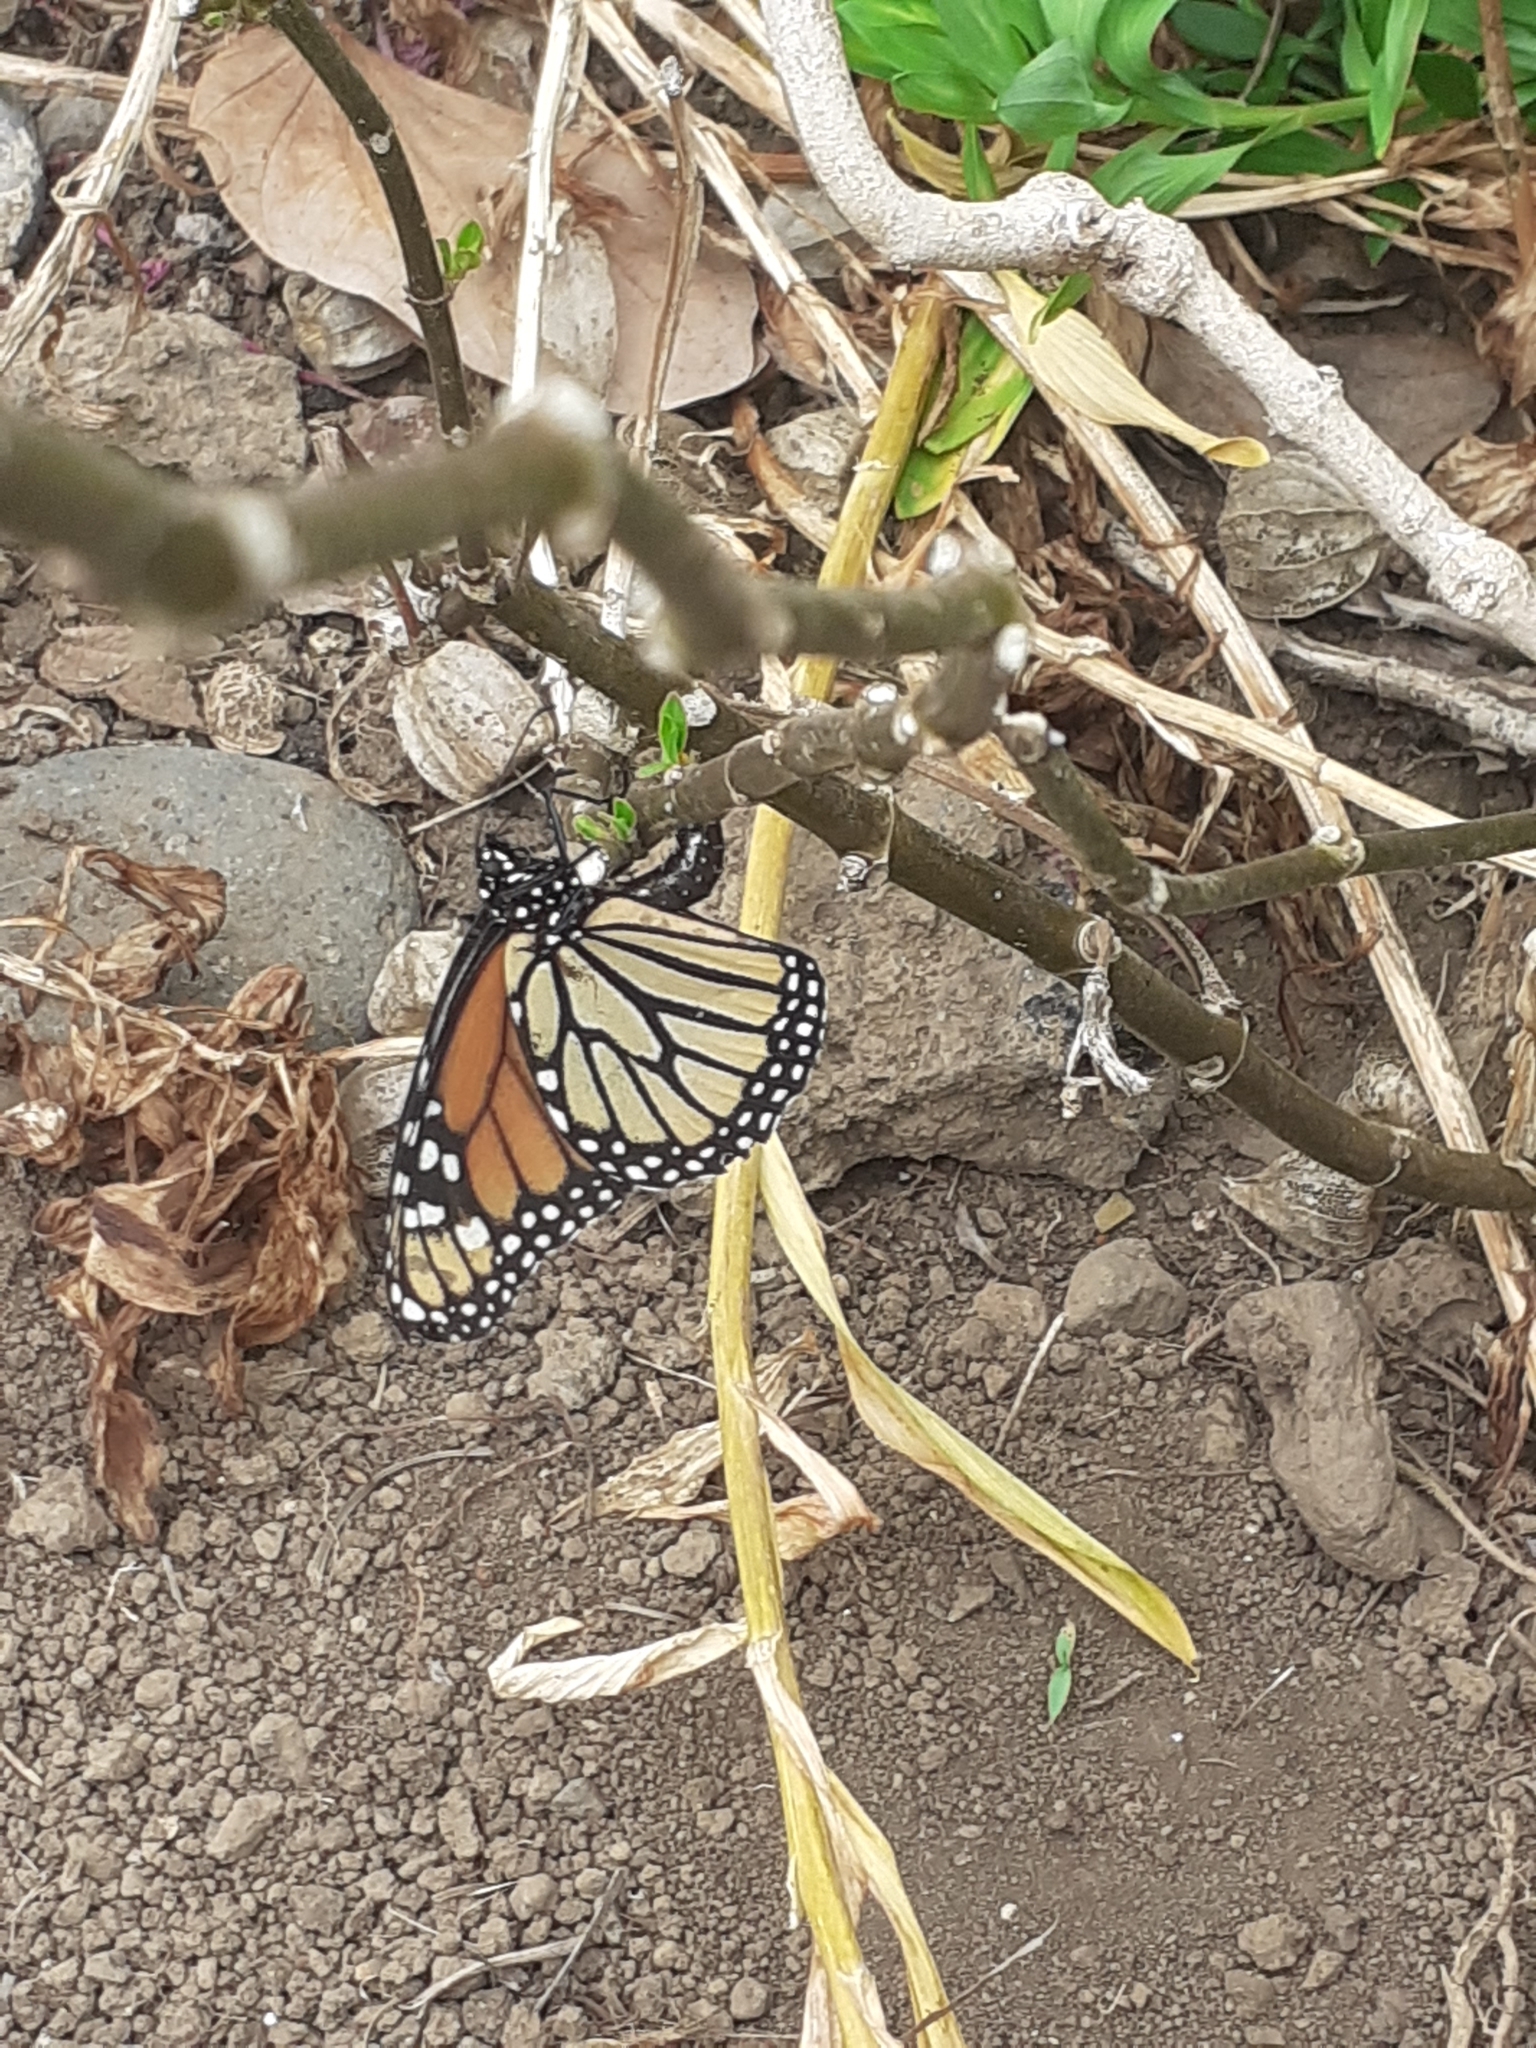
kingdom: Animalia
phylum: Arthropoda
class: Insecta
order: Lepidoptera
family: Nymphalidae
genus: Danaus
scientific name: Danaus plexippus
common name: Monarch
